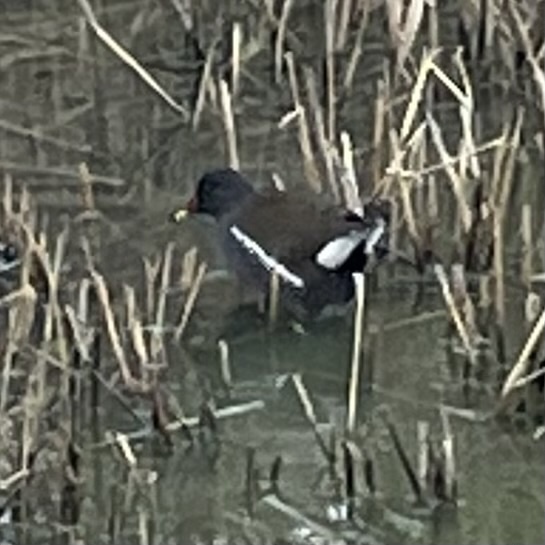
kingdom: Animalia
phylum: Chordata
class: Aves
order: Gruiformes
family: Rallidae
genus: Gallinula
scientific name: Gallinula chloropus
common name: Common moorhen
